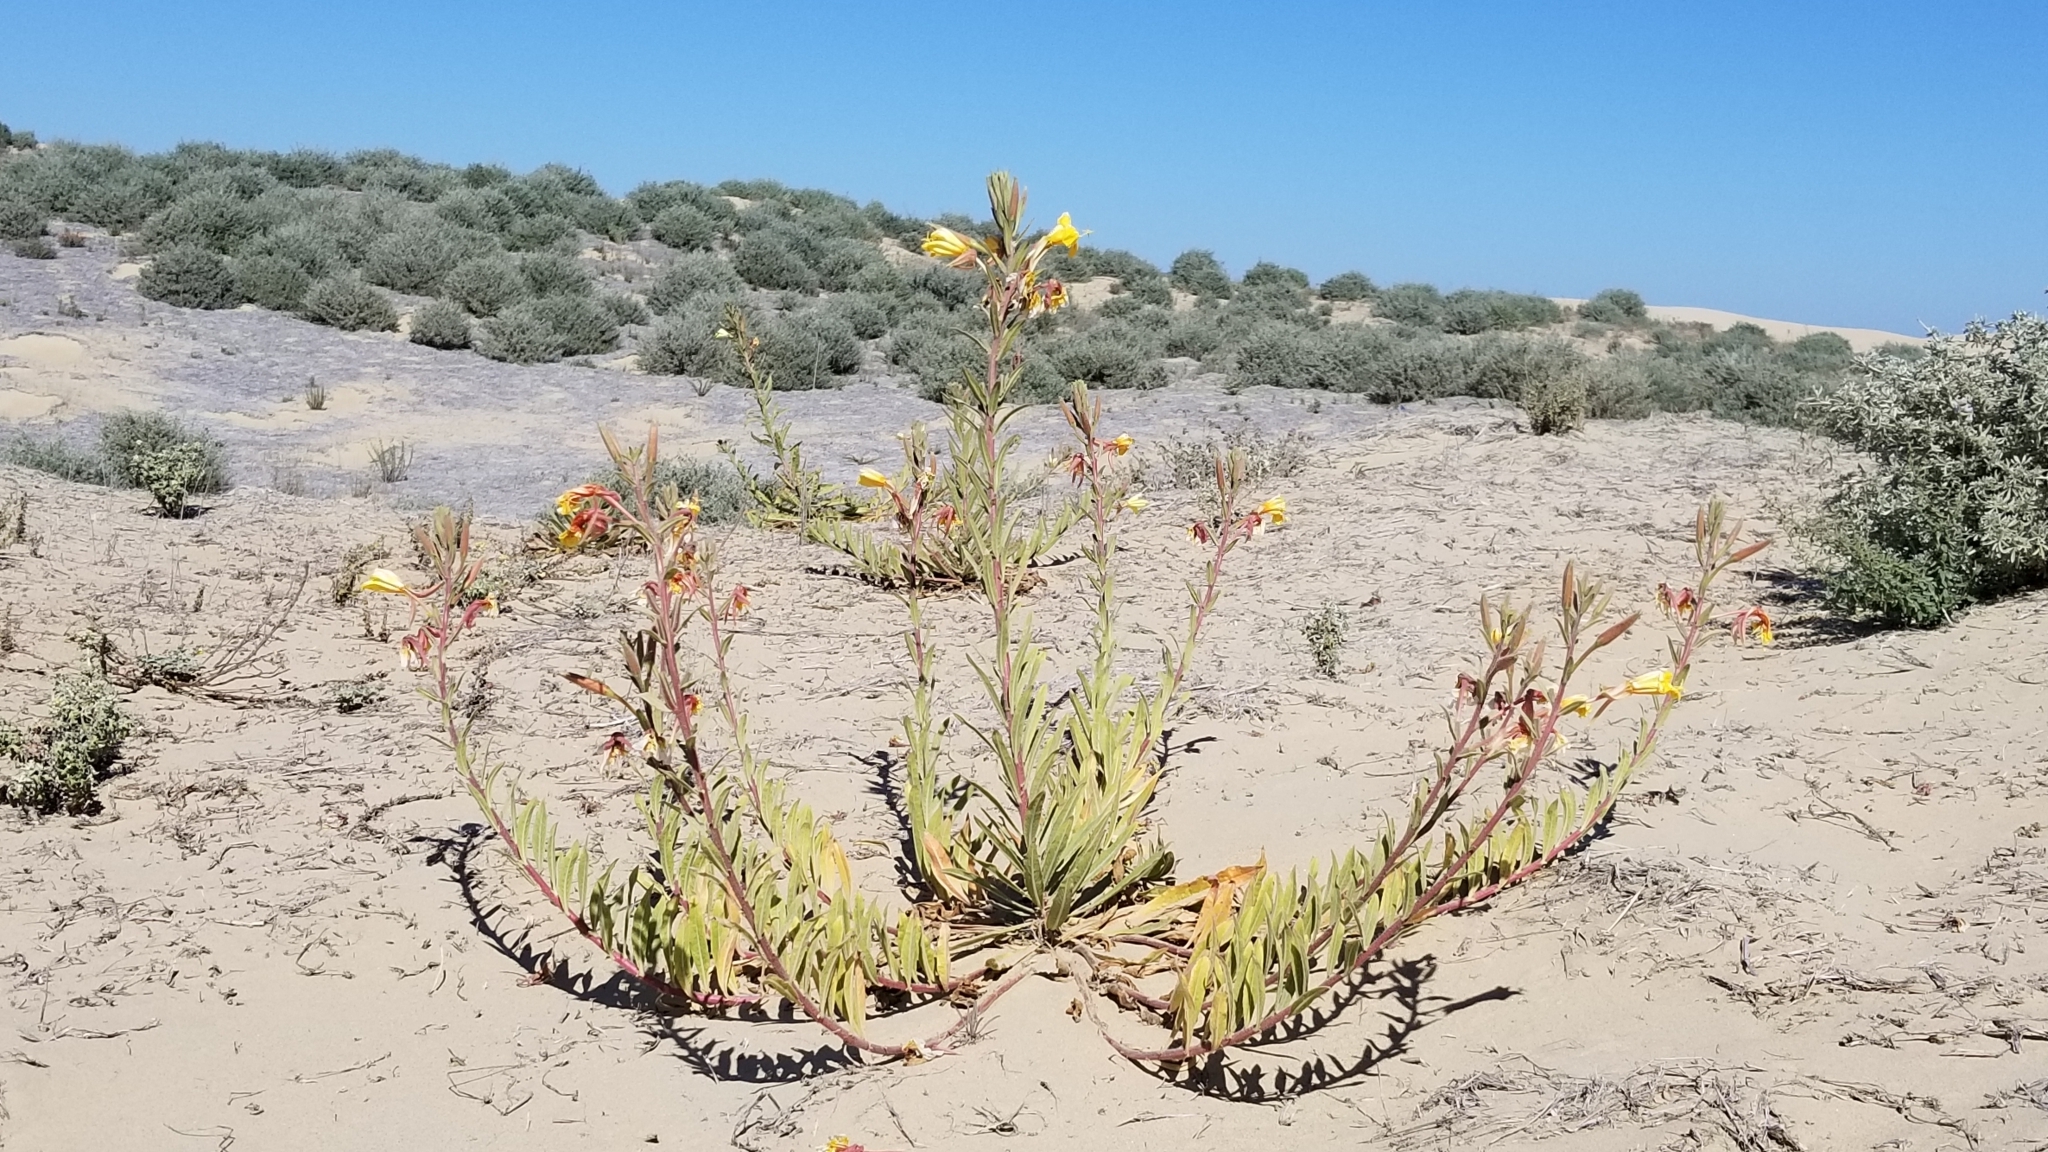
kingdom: Plantae
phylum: Tracheophyta
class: Magnoliopsida
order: Myrtales
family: Onagraceae
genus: Oenothera
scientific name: Oenothera elata
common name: Hooker's evening-primrose
